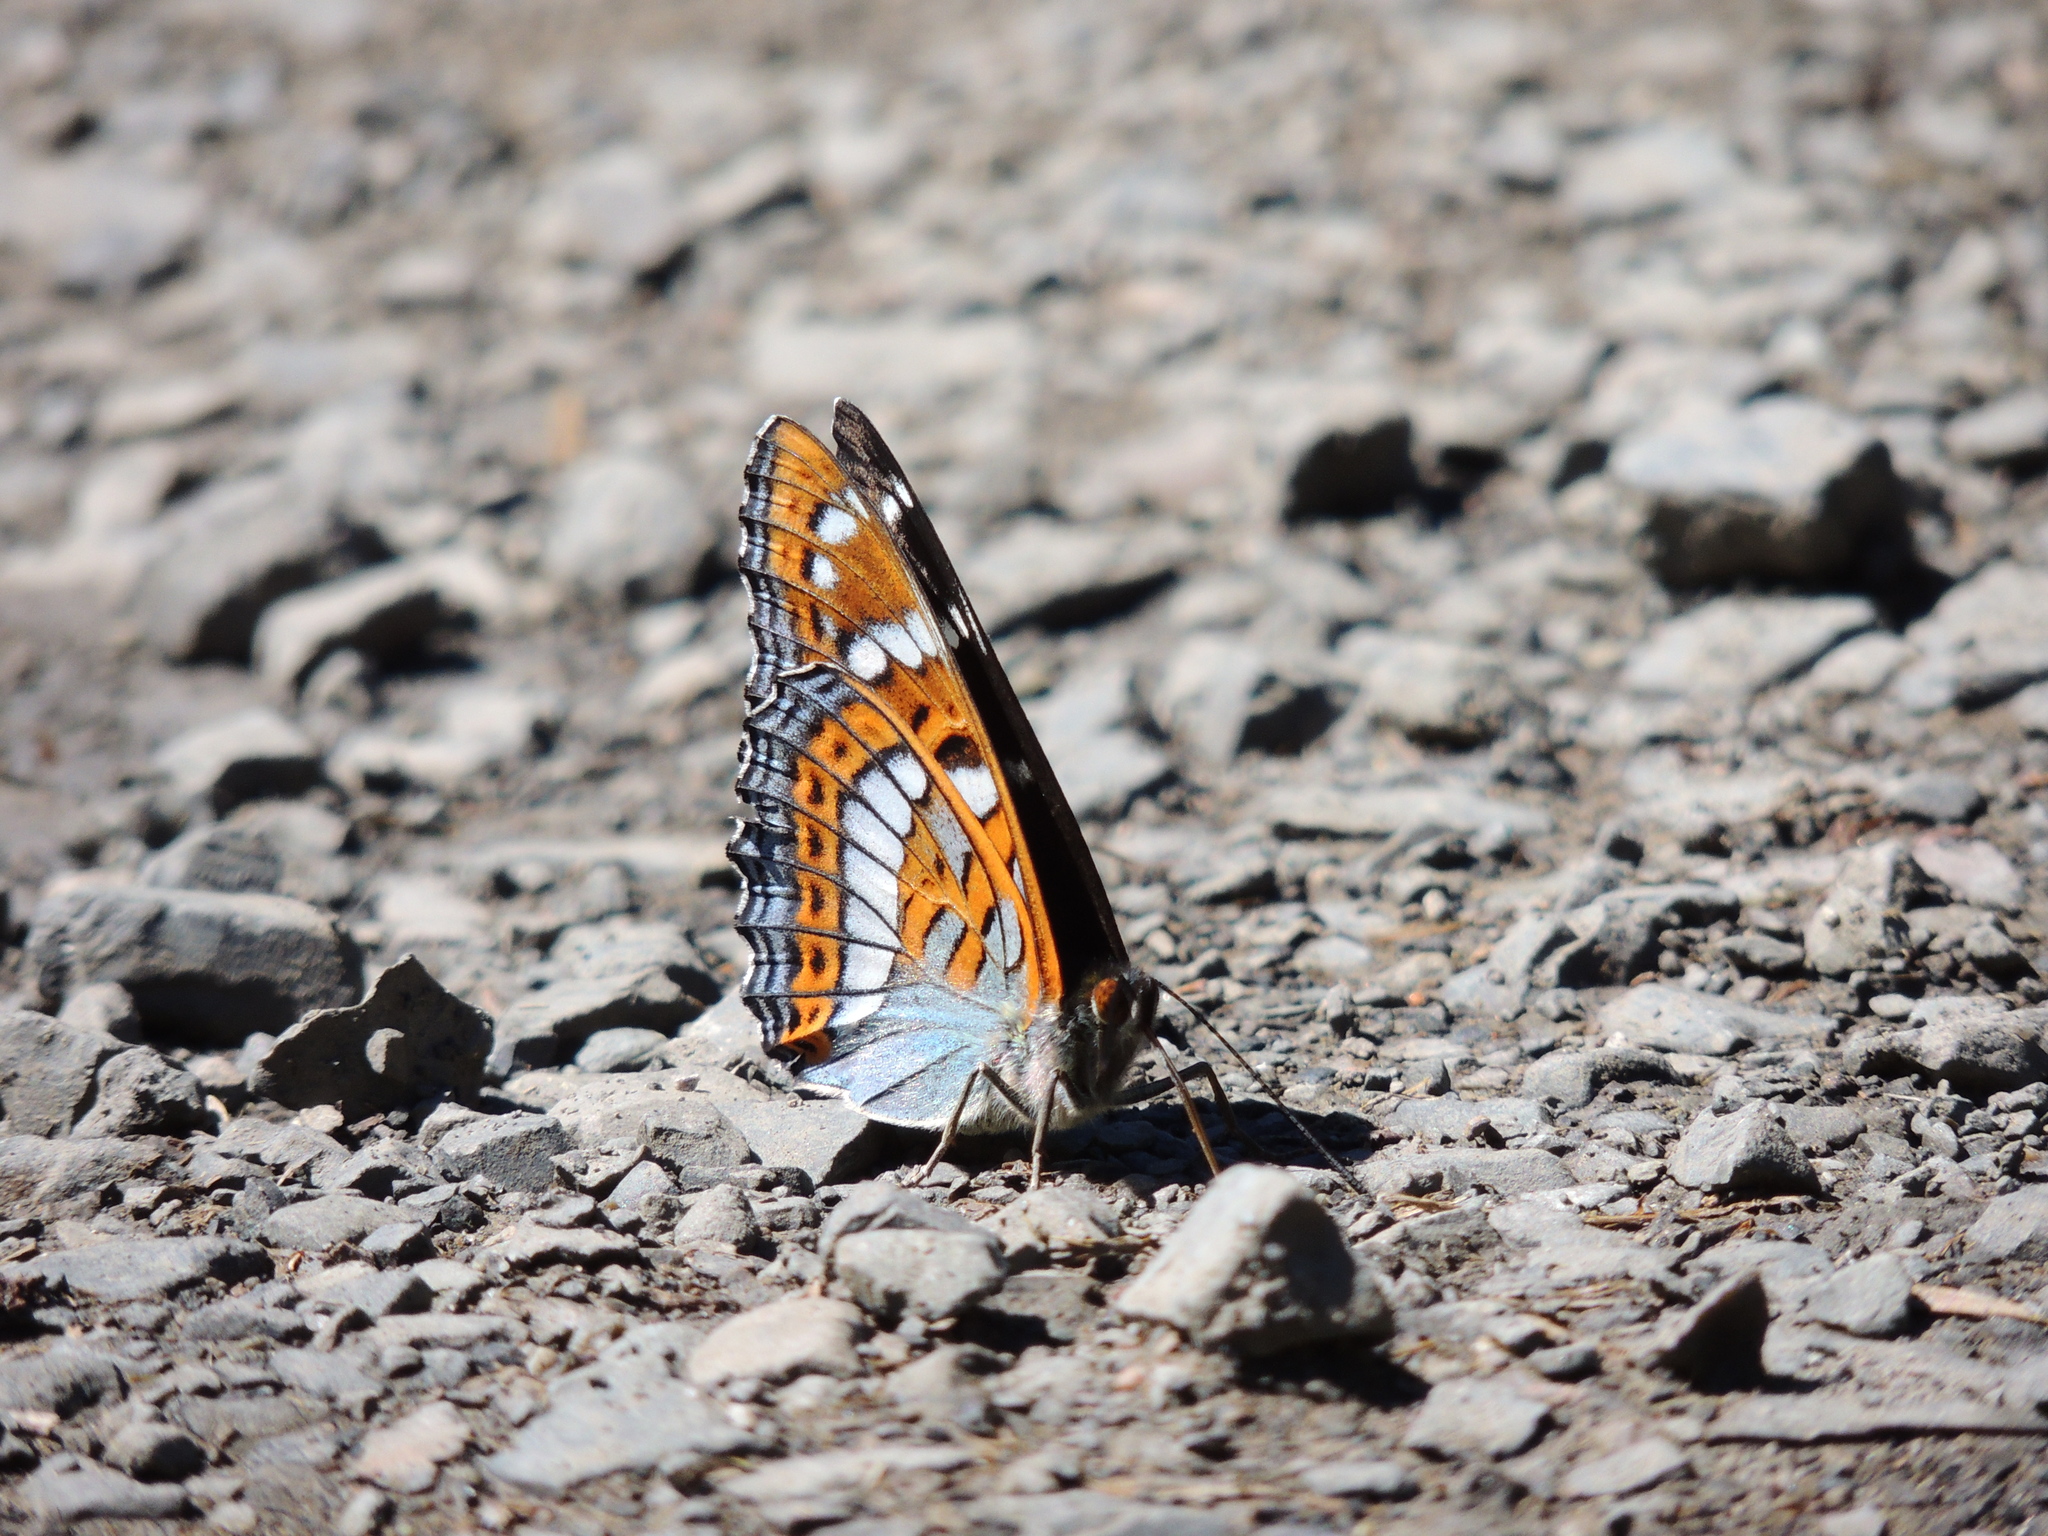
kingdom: Animalia
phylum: Arthropoda
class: Insecta
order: Lepidoptera
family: Nymphalidae
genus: Limenitis
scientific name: Limenitis populi
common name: Poplar admiral
